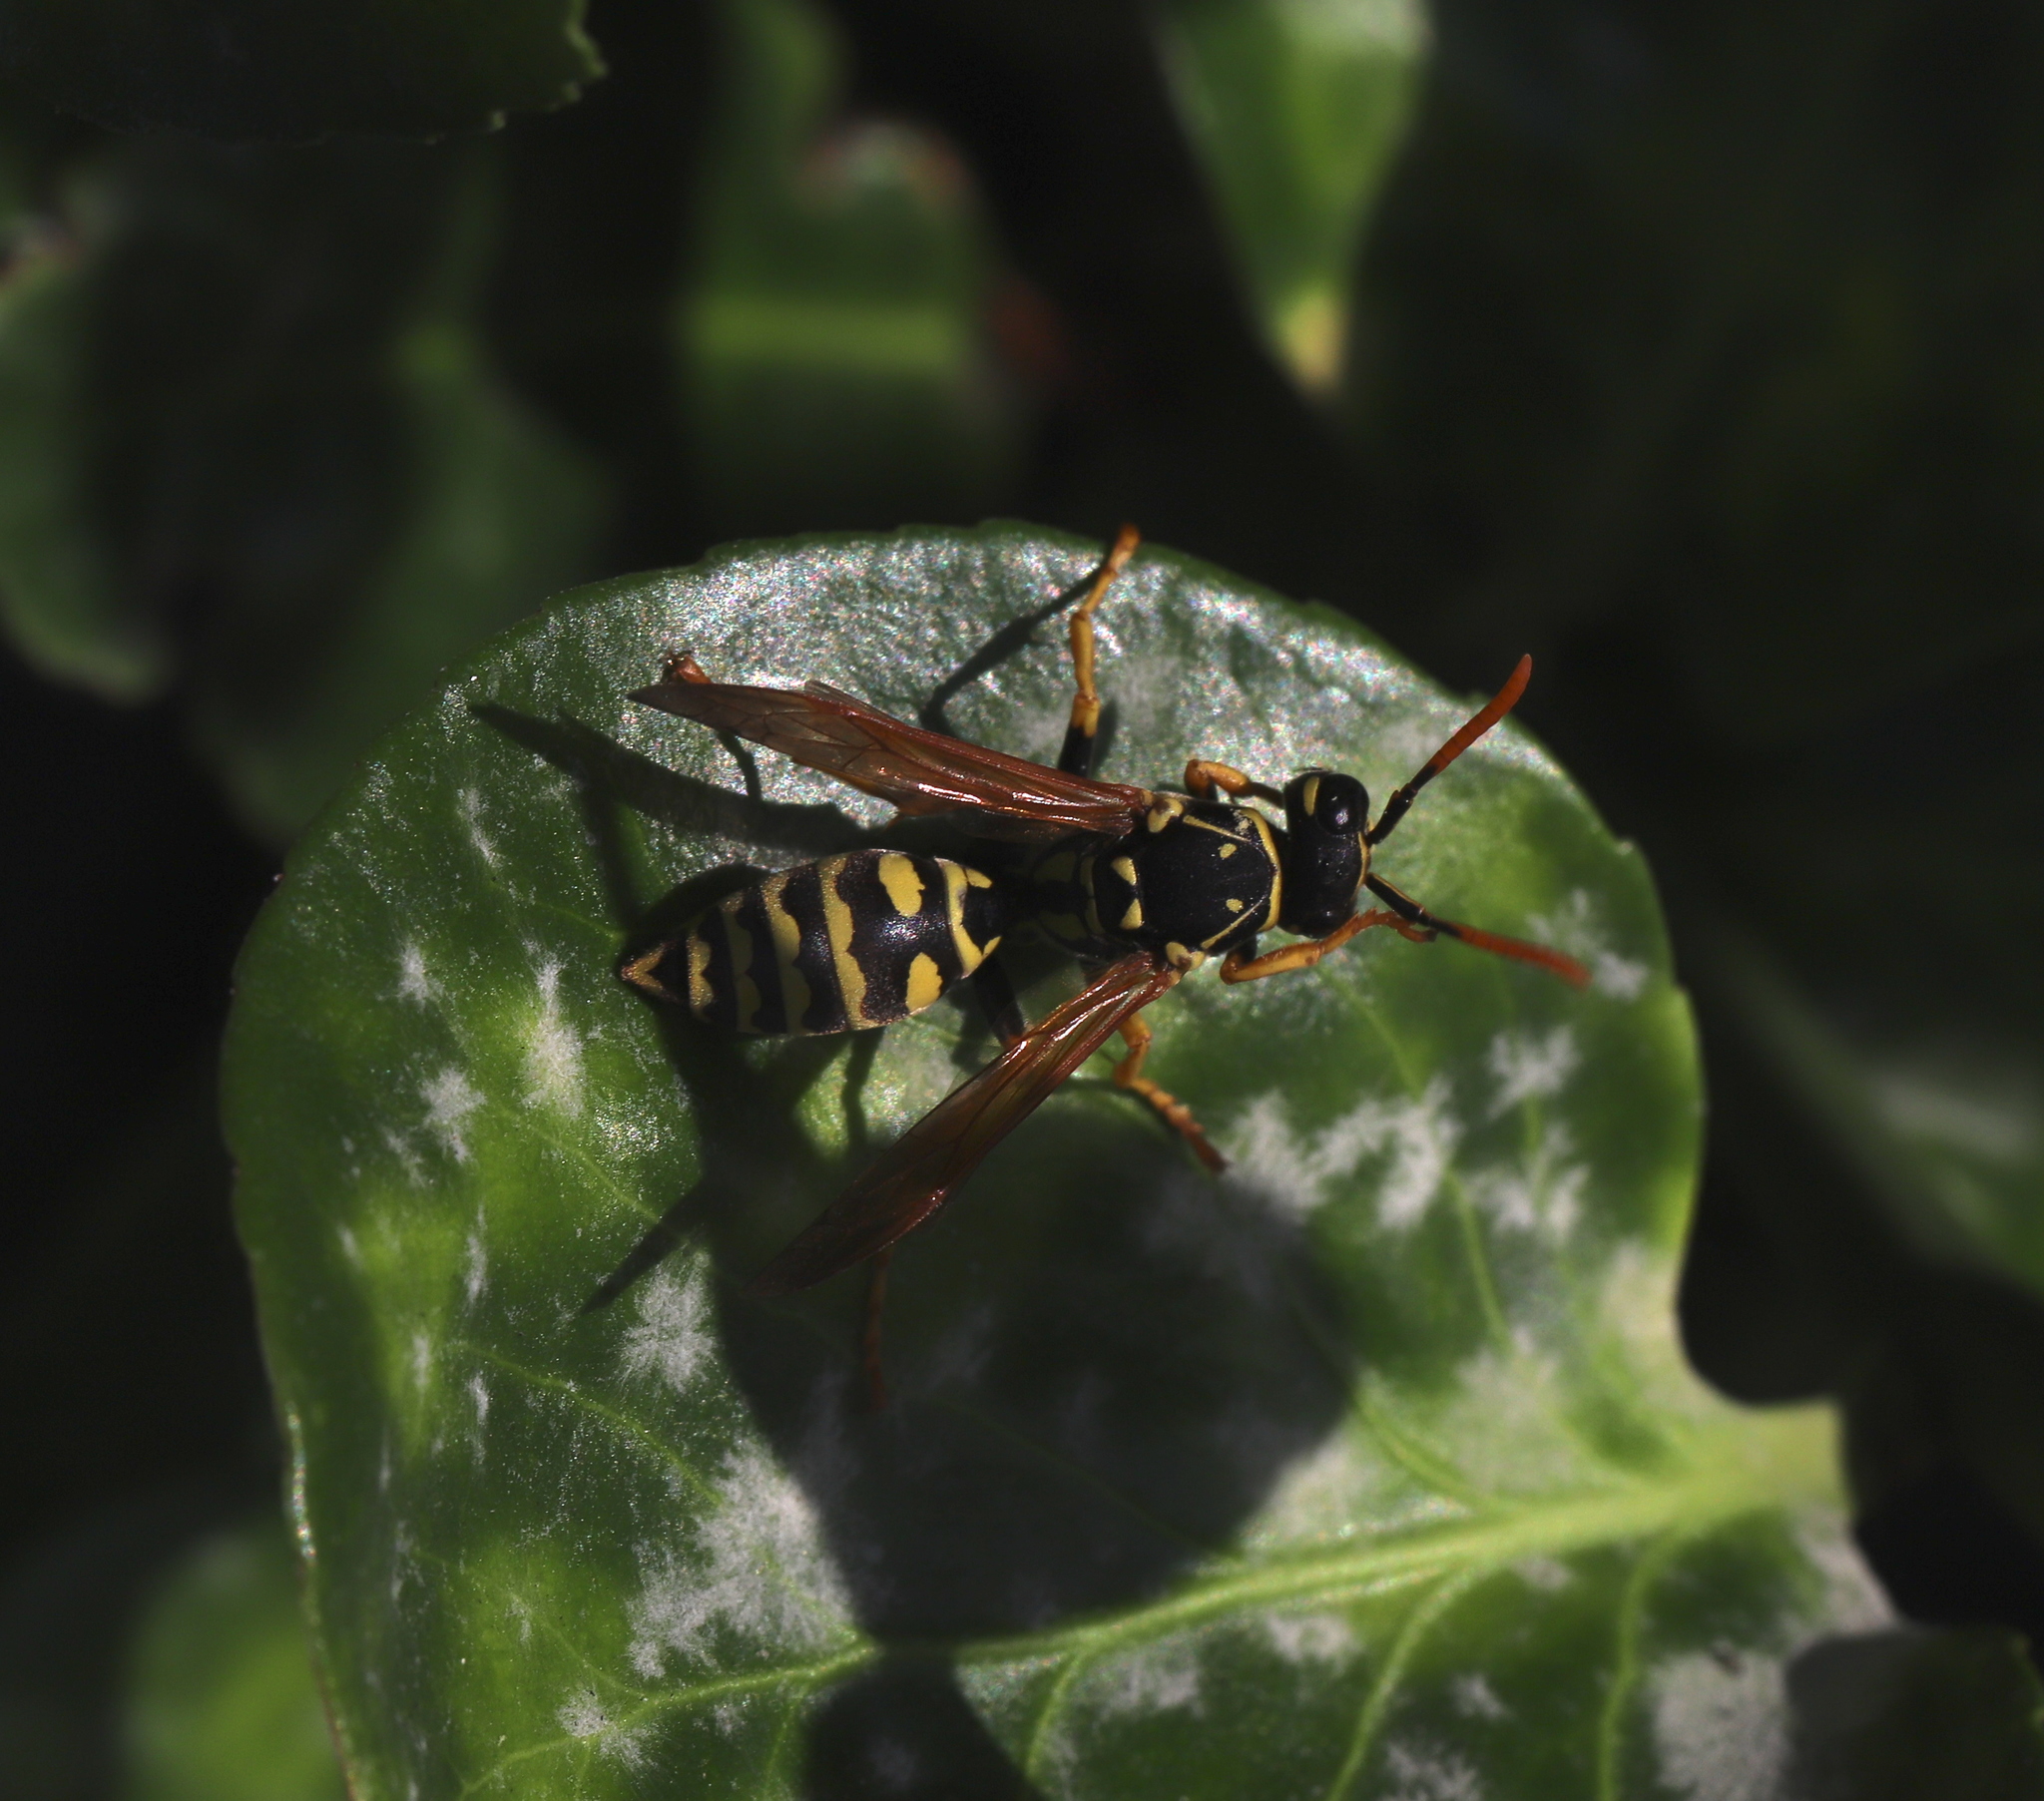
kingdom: Animalia
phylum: Arthropoda
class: Insecta
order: Hymenoptera
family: Eumenidae
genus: Polistes
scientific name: Polistes dominula
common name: Paper wasp
